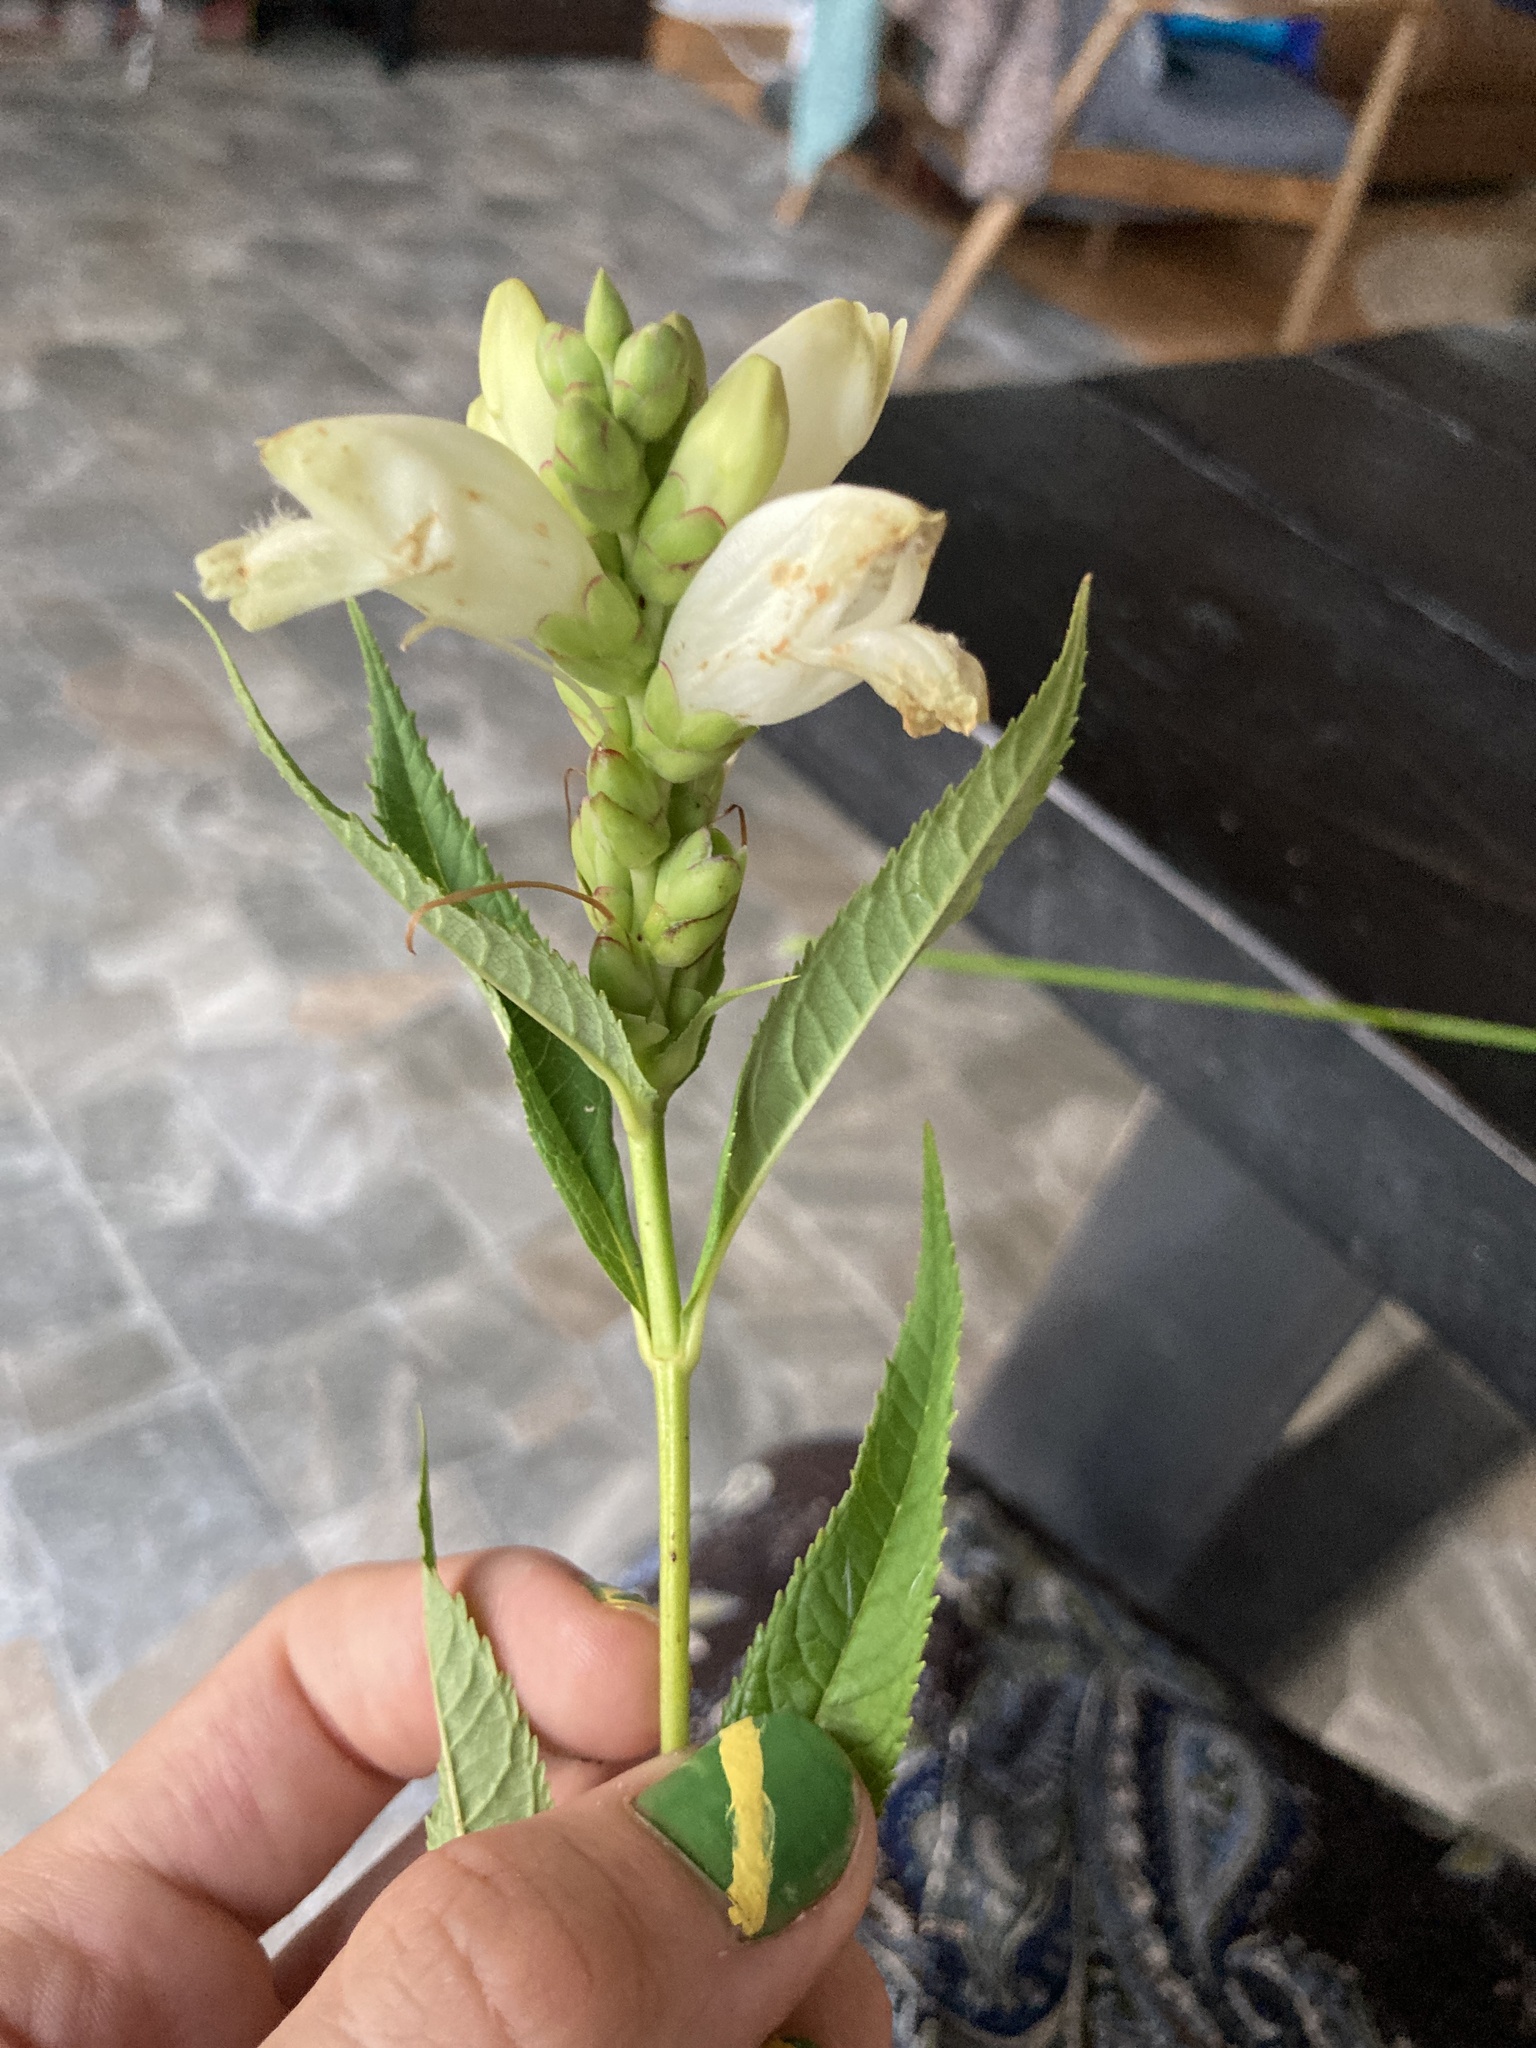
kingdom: Plantae
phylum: Tracheophyta
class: Magnoliopsida
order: Lamiales
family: Plantaginaceae
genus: Chelone
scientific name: Chelone glabra
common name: Snakehead
